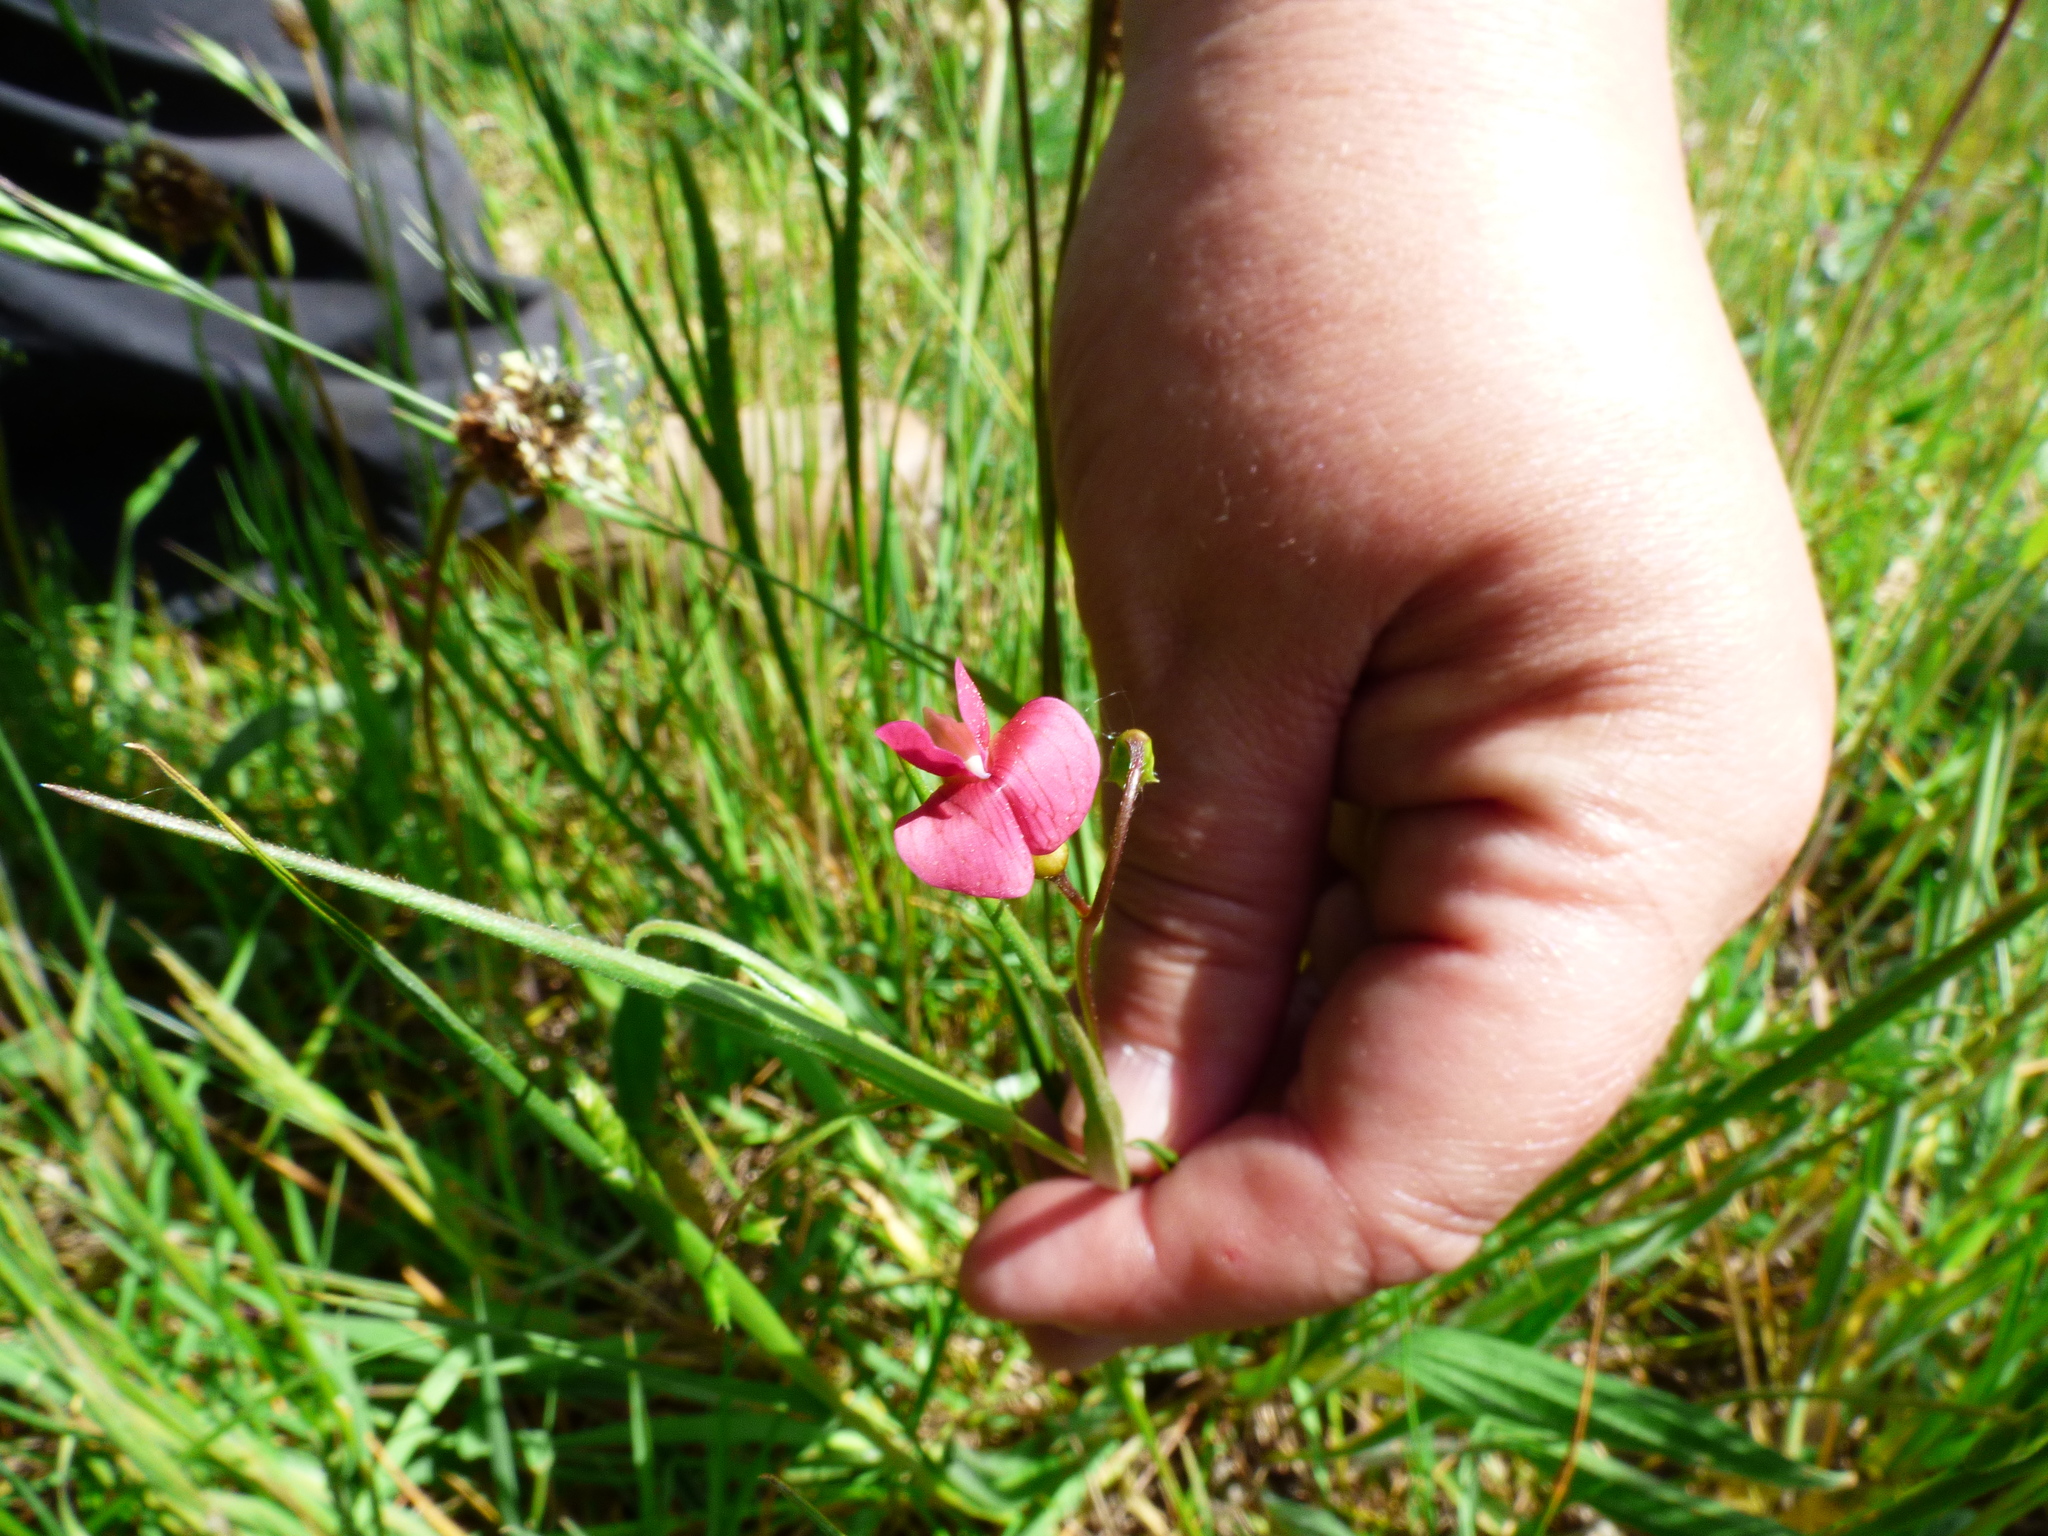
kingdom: Plantae
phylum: Tracheophyta
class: Magnoliopsida
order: Fabales
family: Fabaceae
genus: Lathyrus
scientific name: Lathyrus nissolia
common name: Grass vetchling
